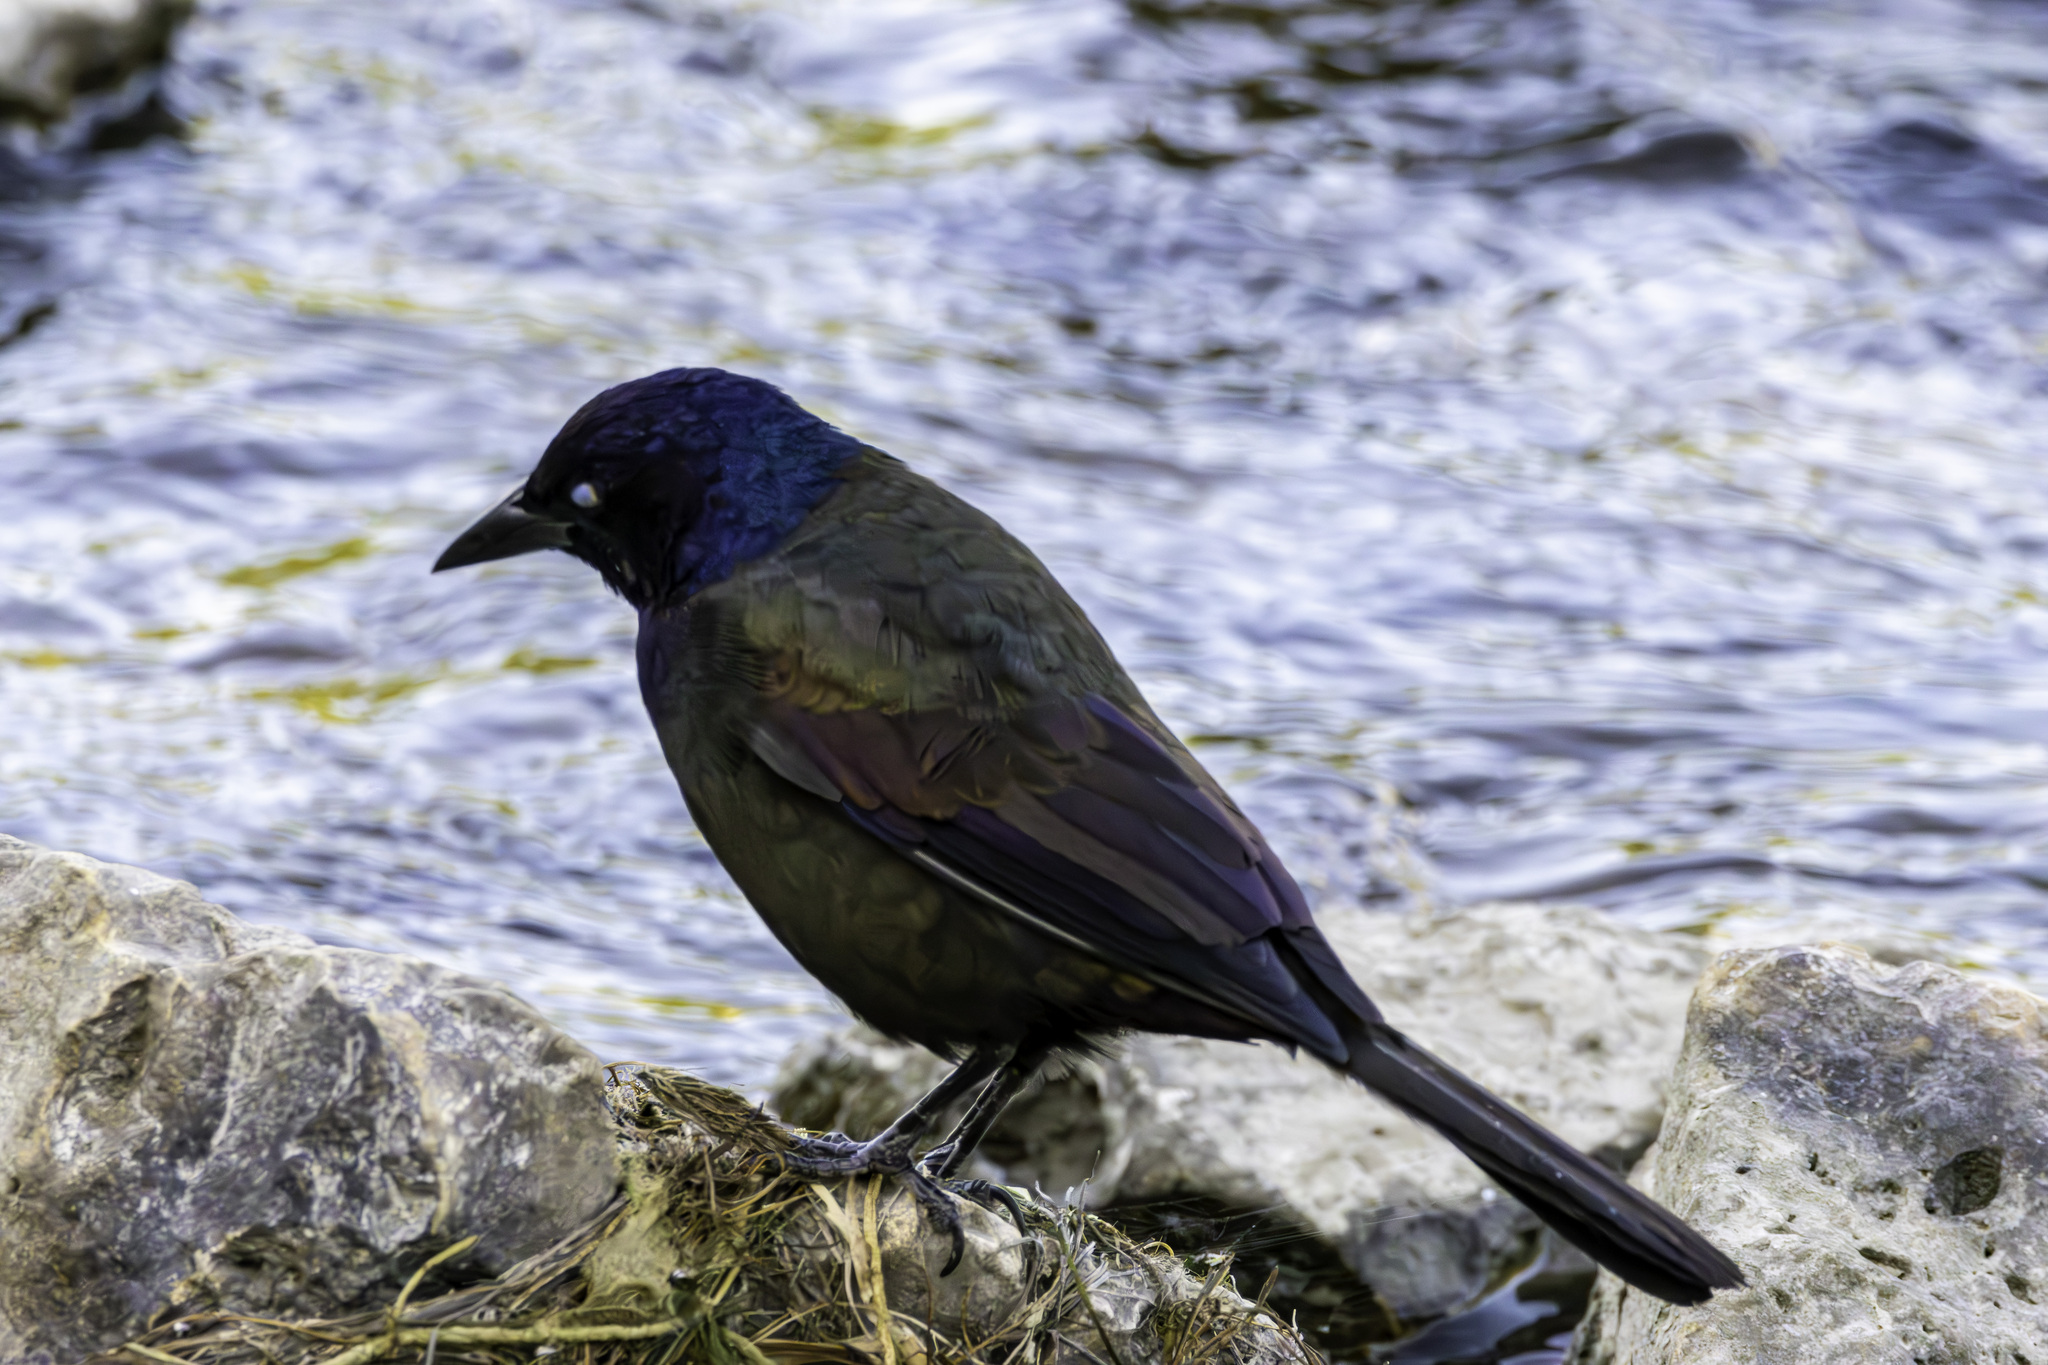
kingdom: Animalia
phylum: Chordata
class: Aves
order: Passeriformes
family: Icteridae
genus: Quiscalus
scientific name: Quiscalus quiscula
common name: Common grackle
